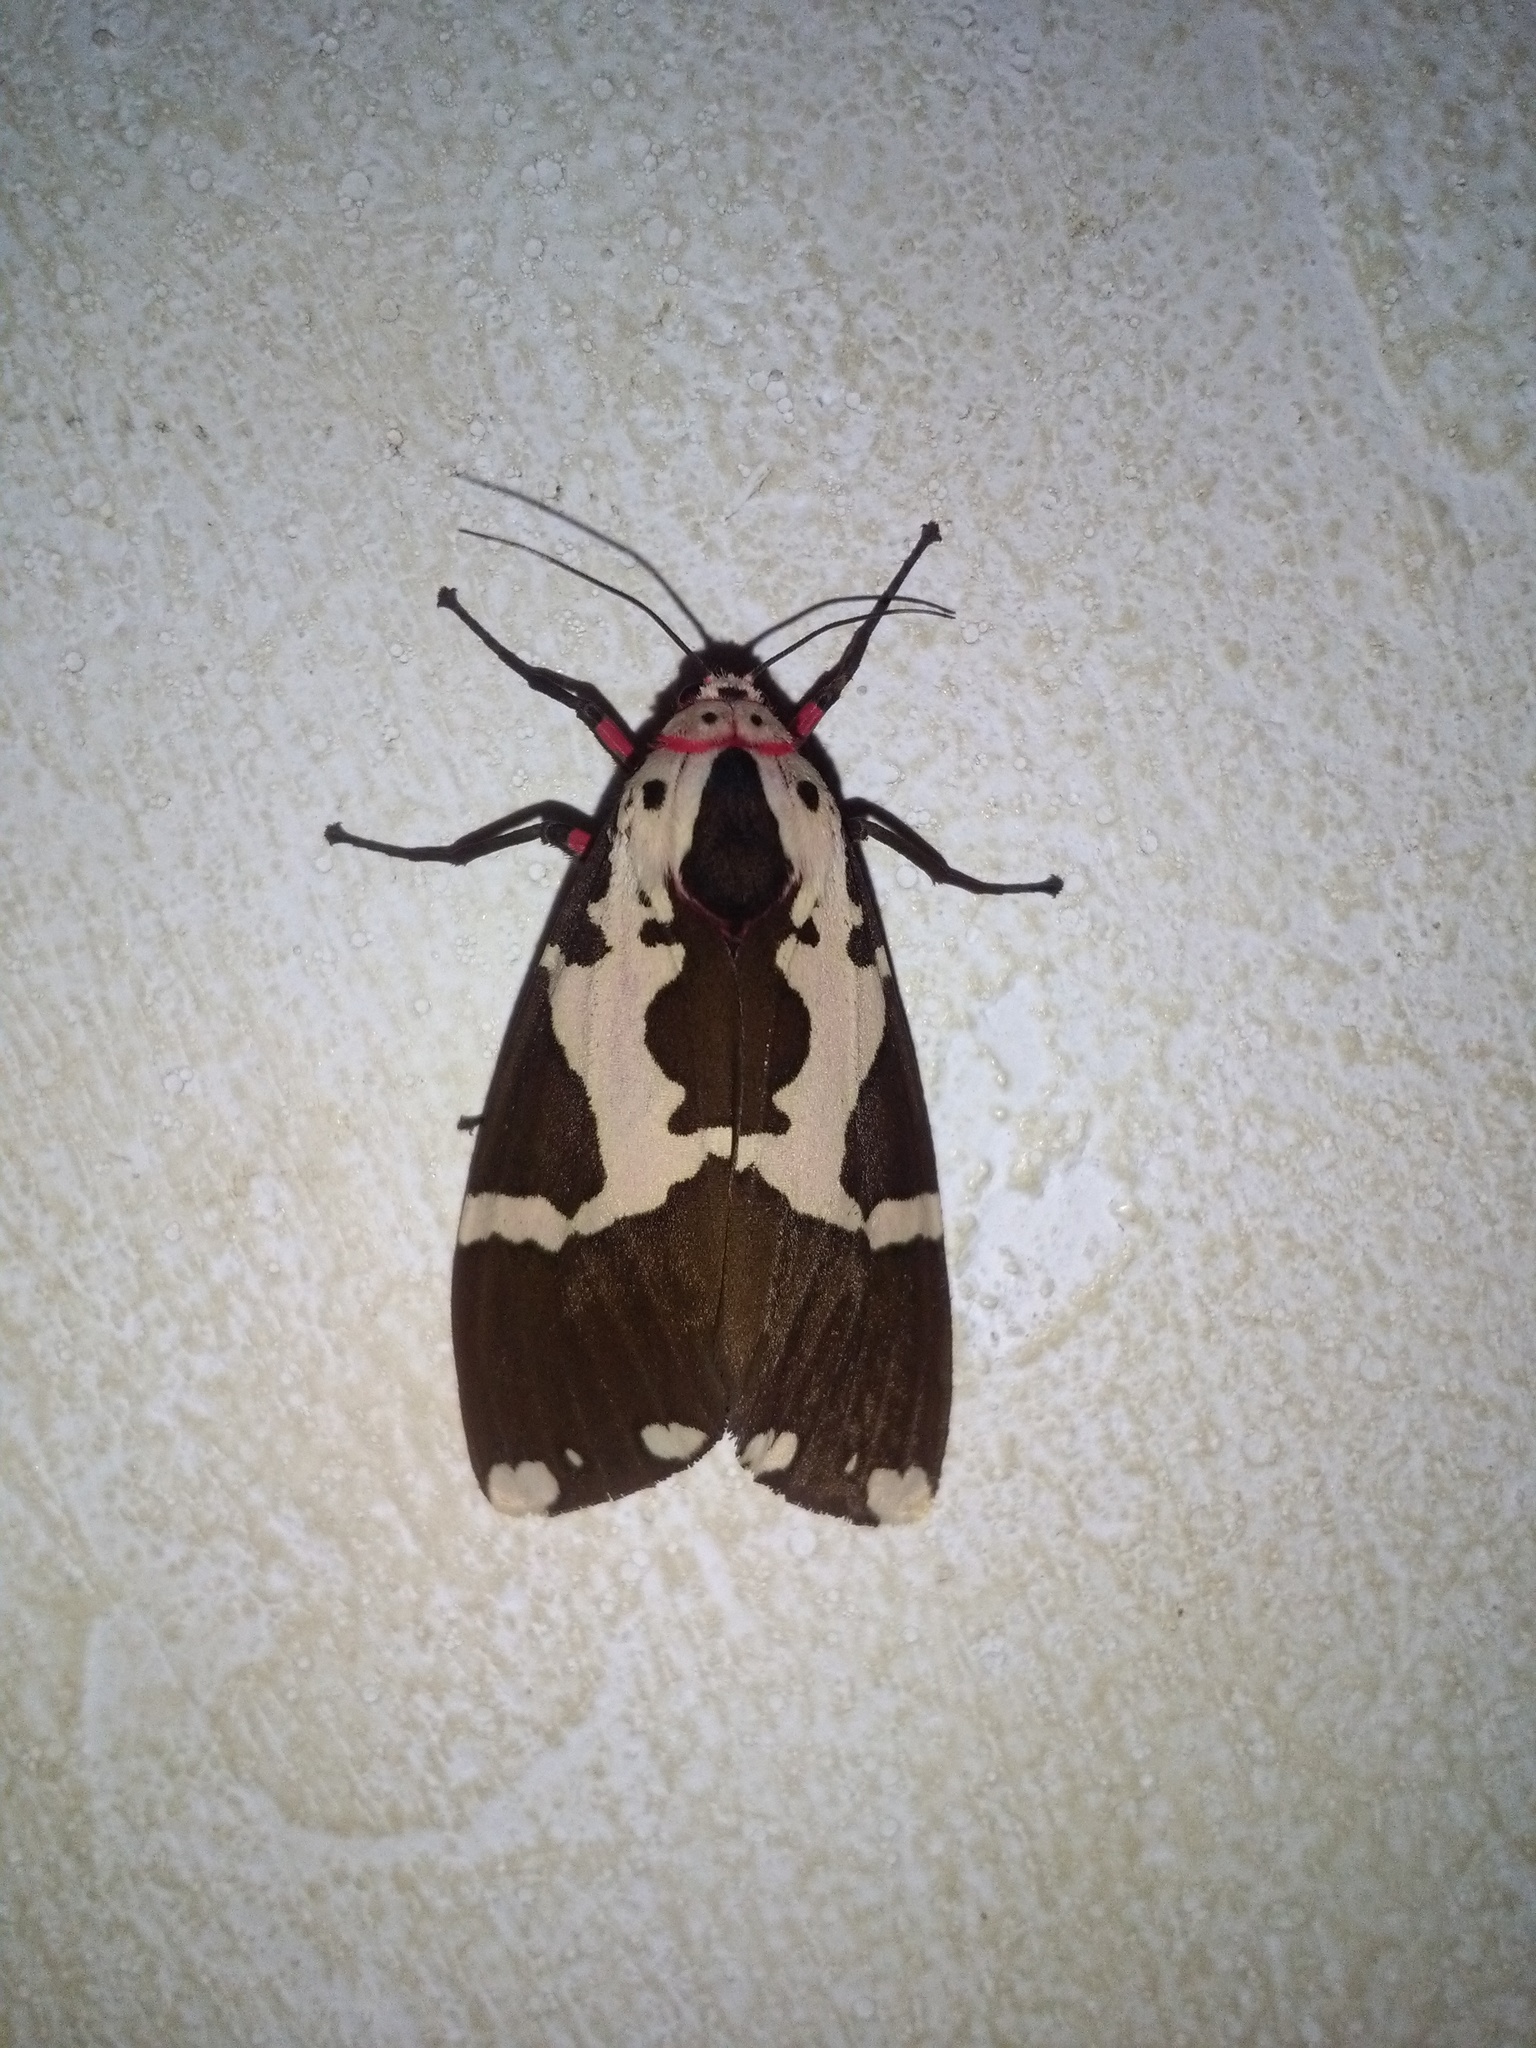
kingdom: Animalia
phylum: Arthropoda
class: Insecta
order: Lepidoptera
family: Erebidae
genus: Pericallia
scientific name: Pericallia
